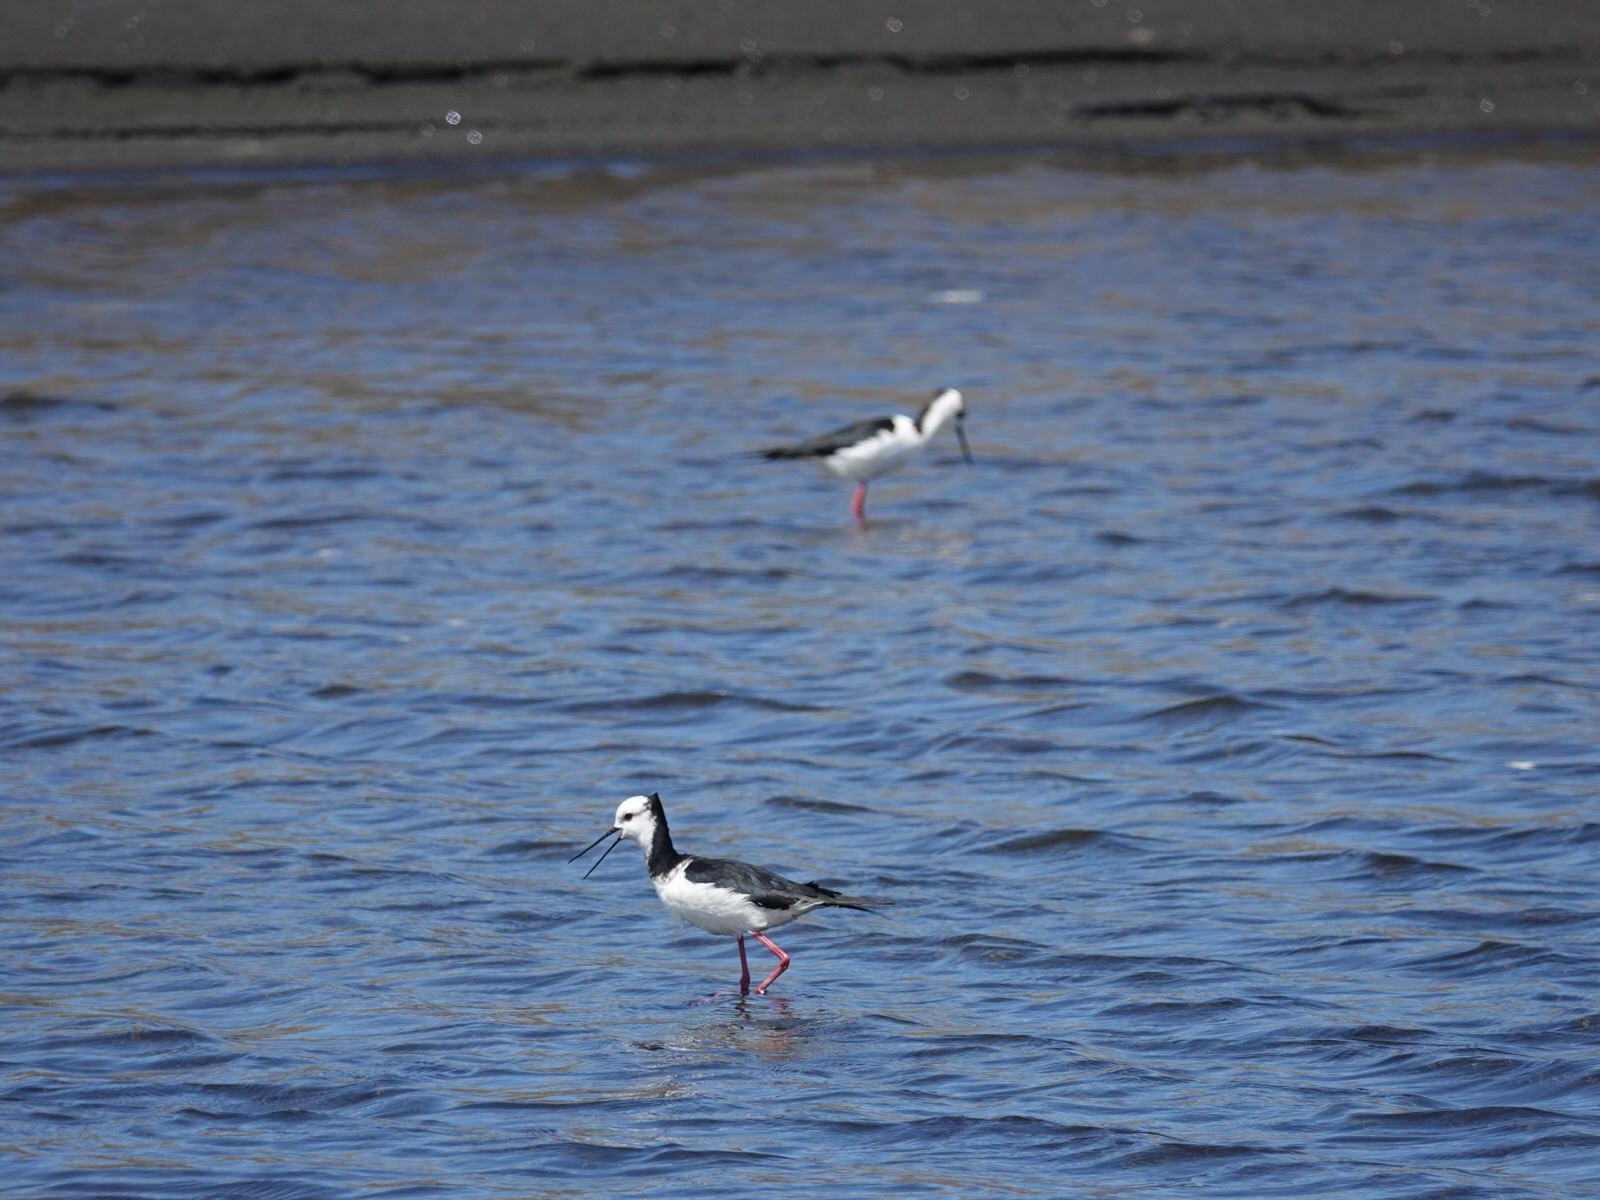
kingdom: Animalia
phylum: Chordata
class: Aves
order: Charadriiformes
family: Recurvirostridae
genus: Himantopus
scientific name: Himantopus leucocephalus
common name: White-headed stilt
